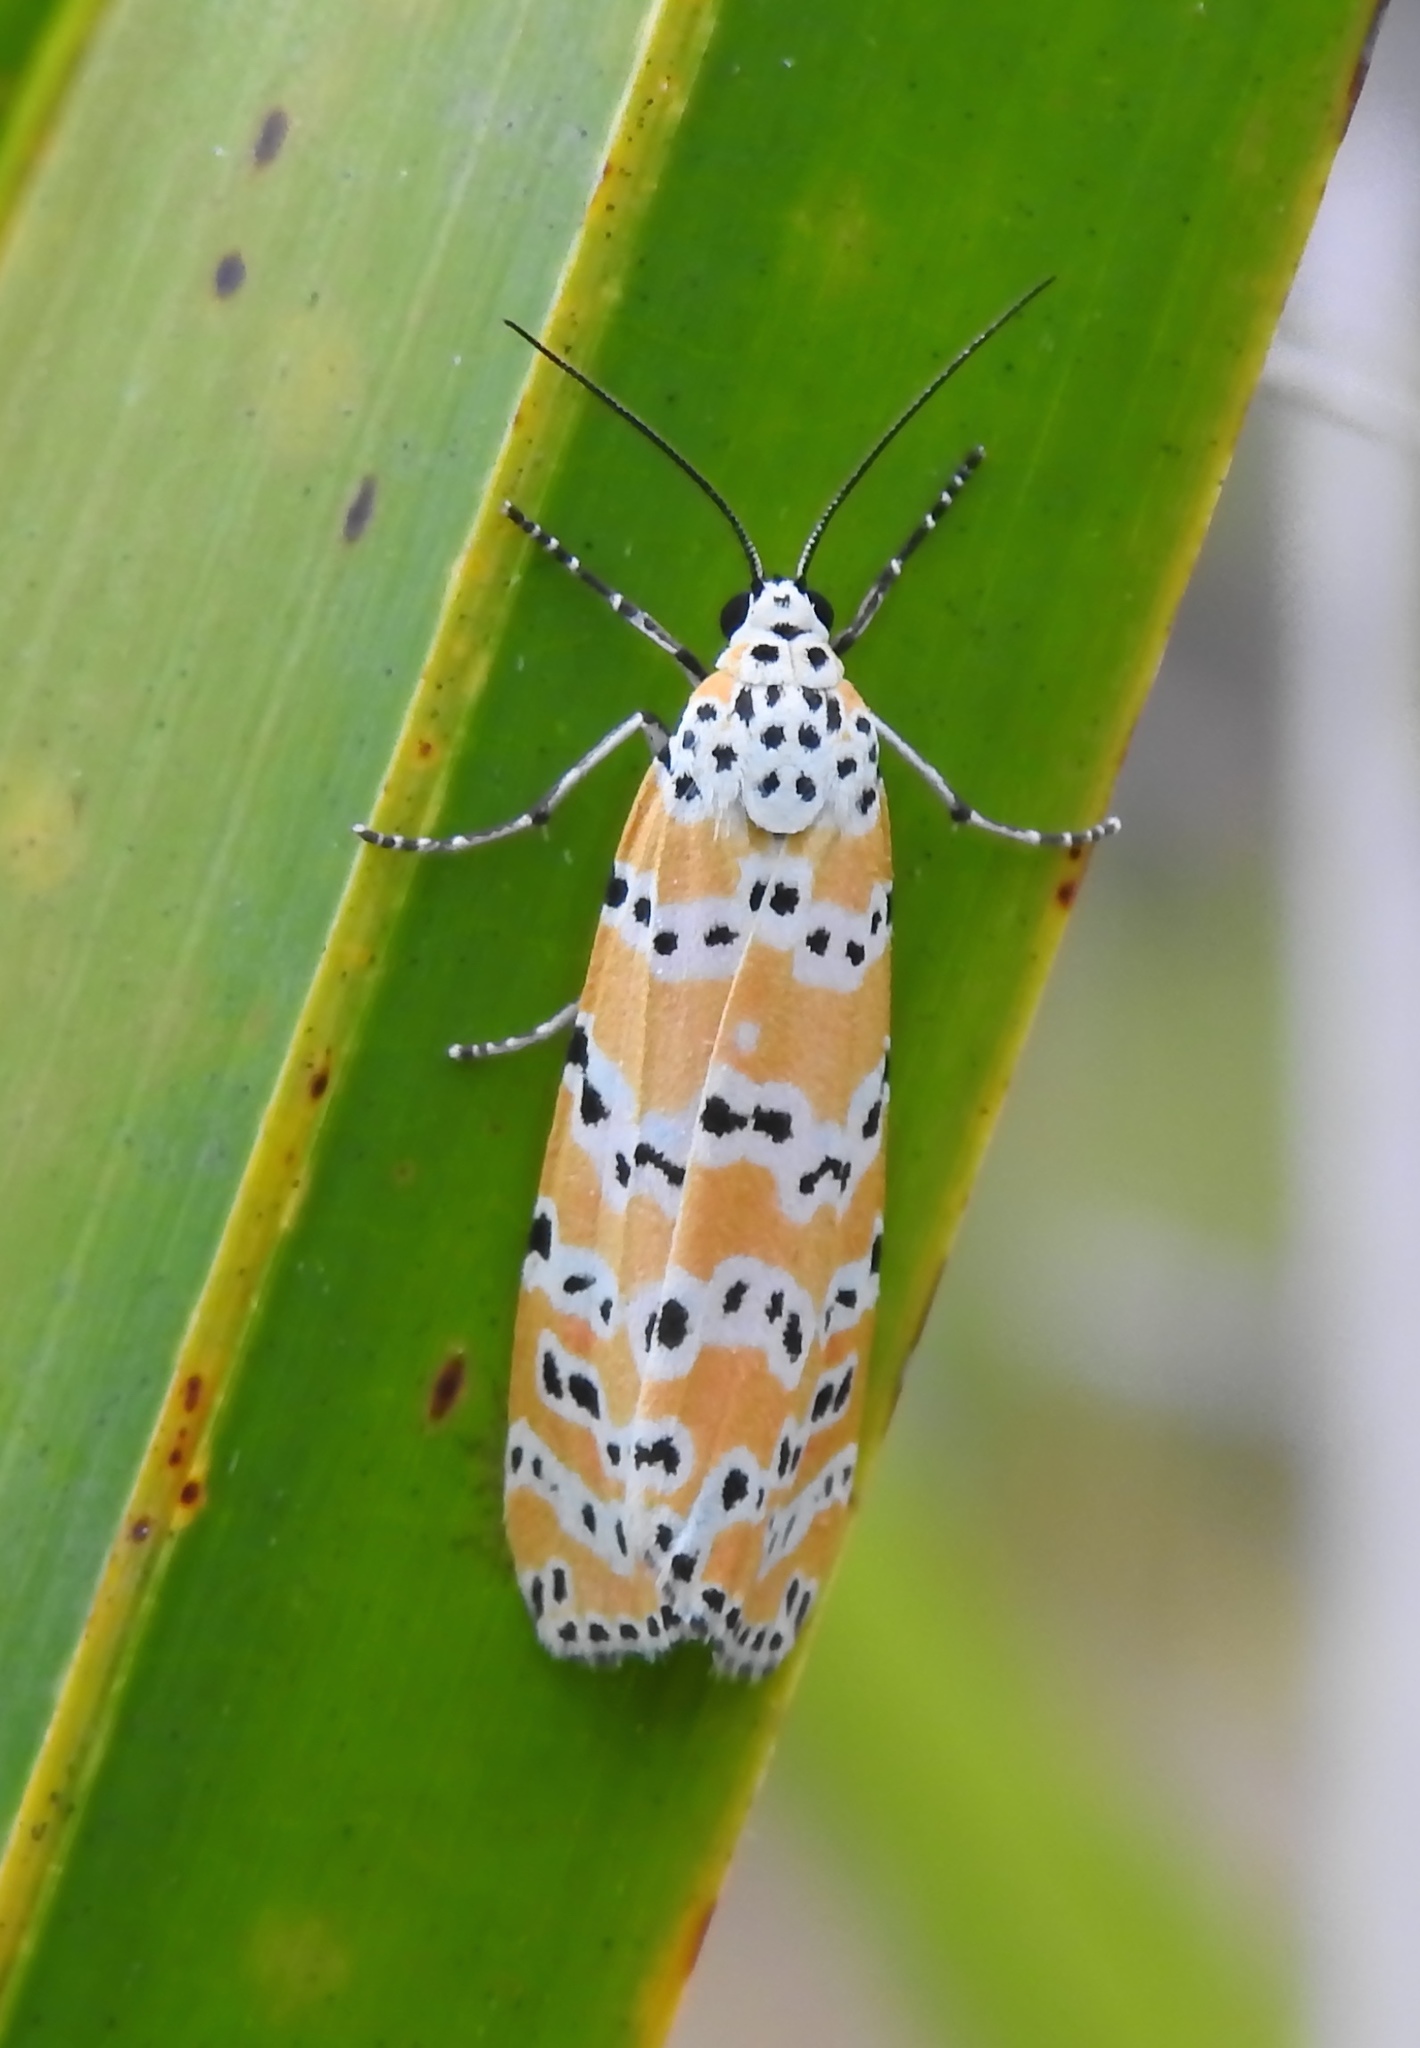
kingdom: Animalia
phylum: Arthropoda
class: Insecta
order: Lepidoptera
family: Erebidae
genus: Utetheisa
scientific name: Utetheisa ornatrix
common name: Beautiful utetheisa
